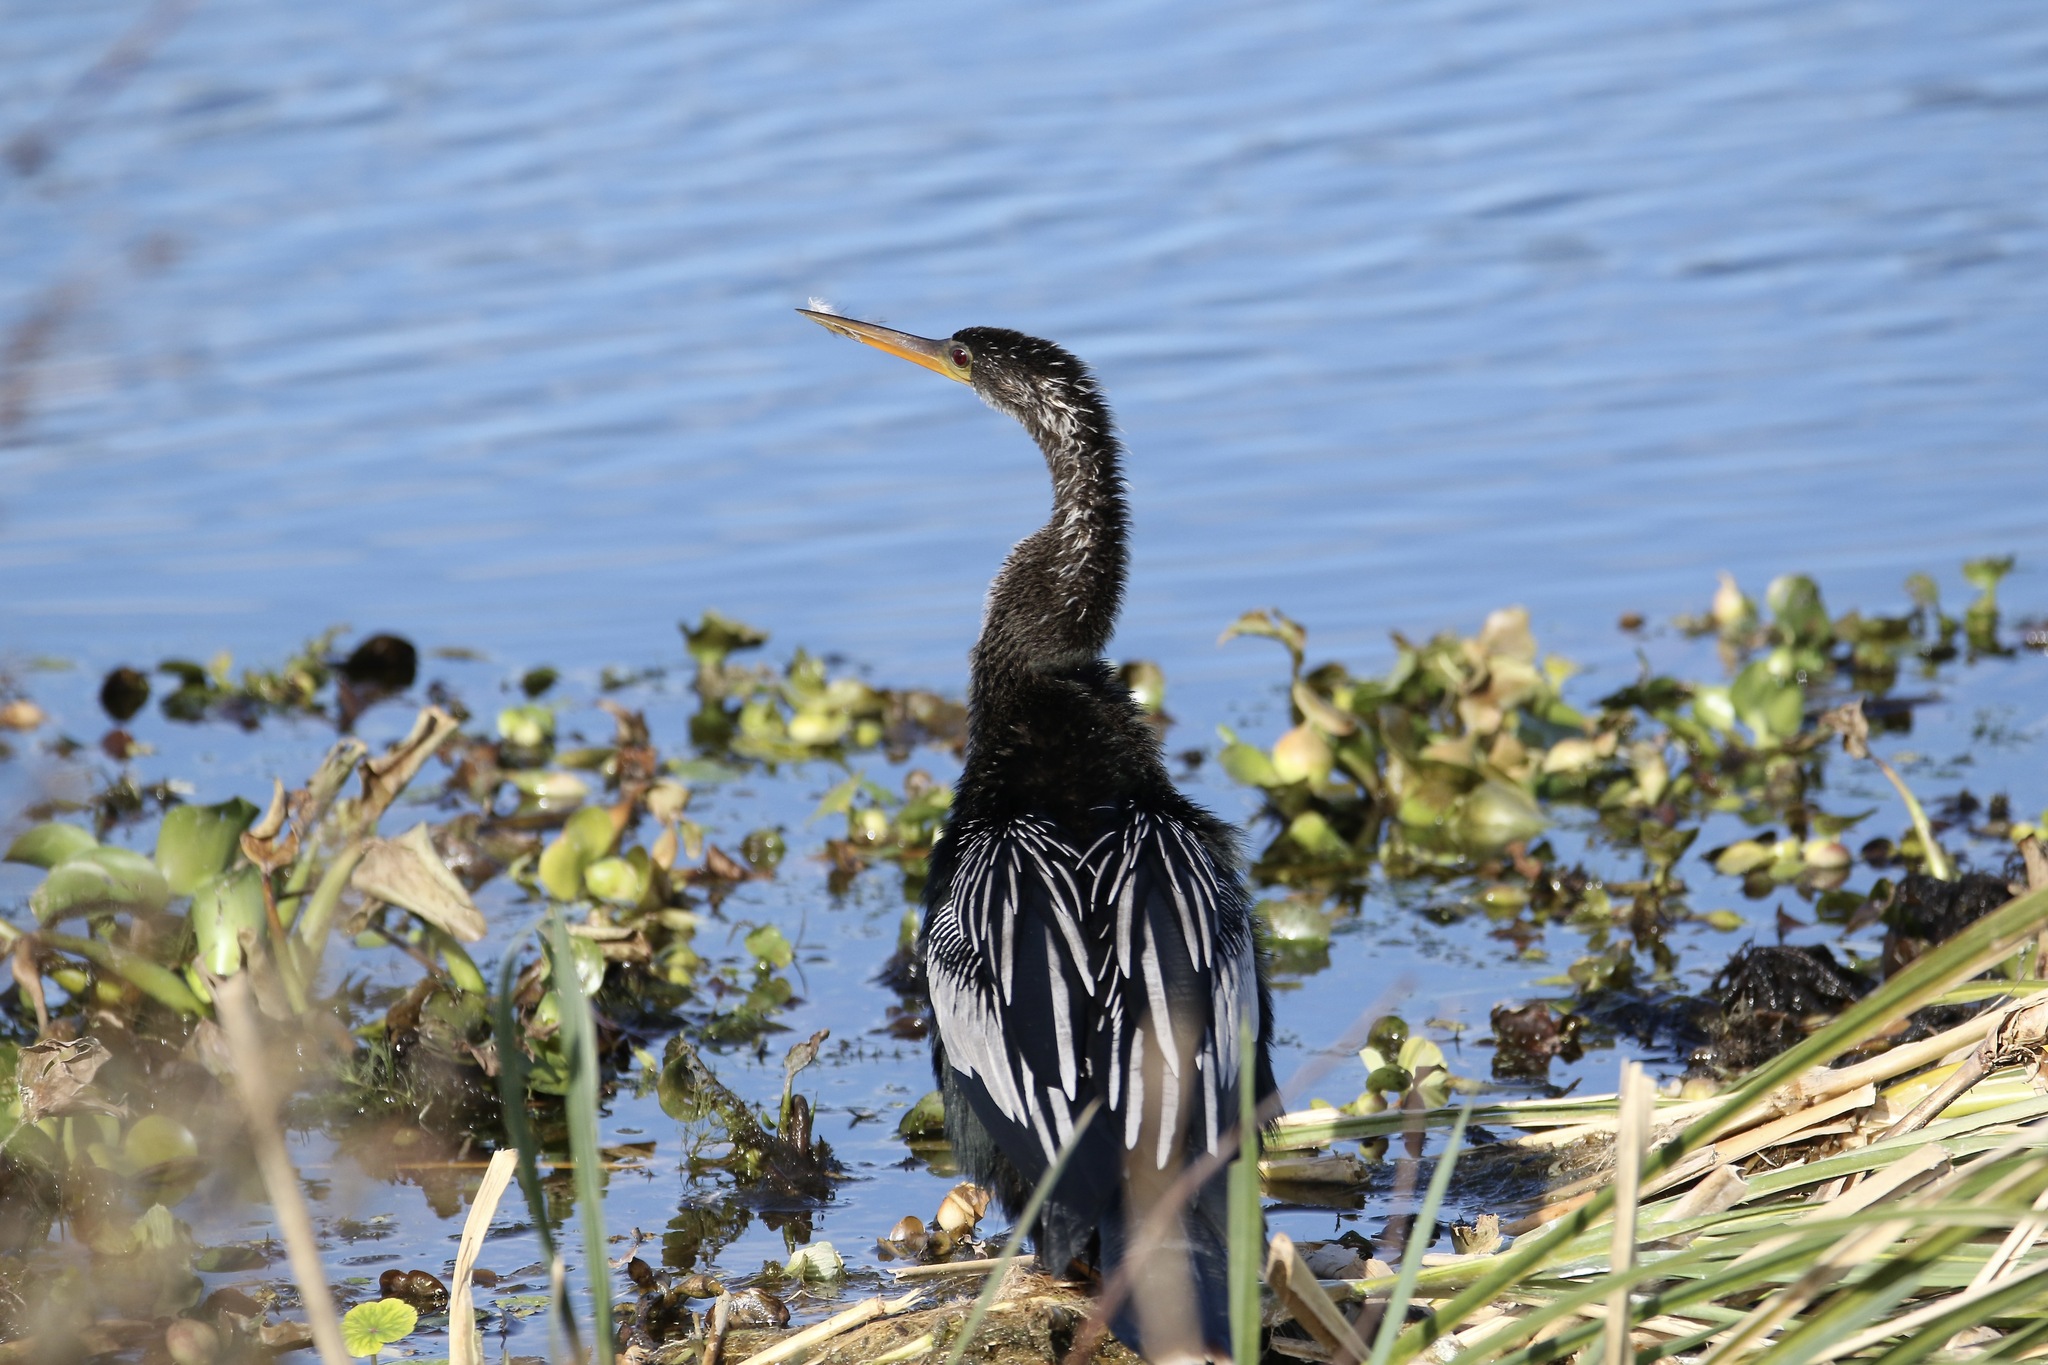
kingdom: Animalia
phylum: Chordata
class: Aves
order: Suliformes
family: Anhingidae
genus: Anhinga
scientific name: Anhinga anhinga
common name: Anhinga
